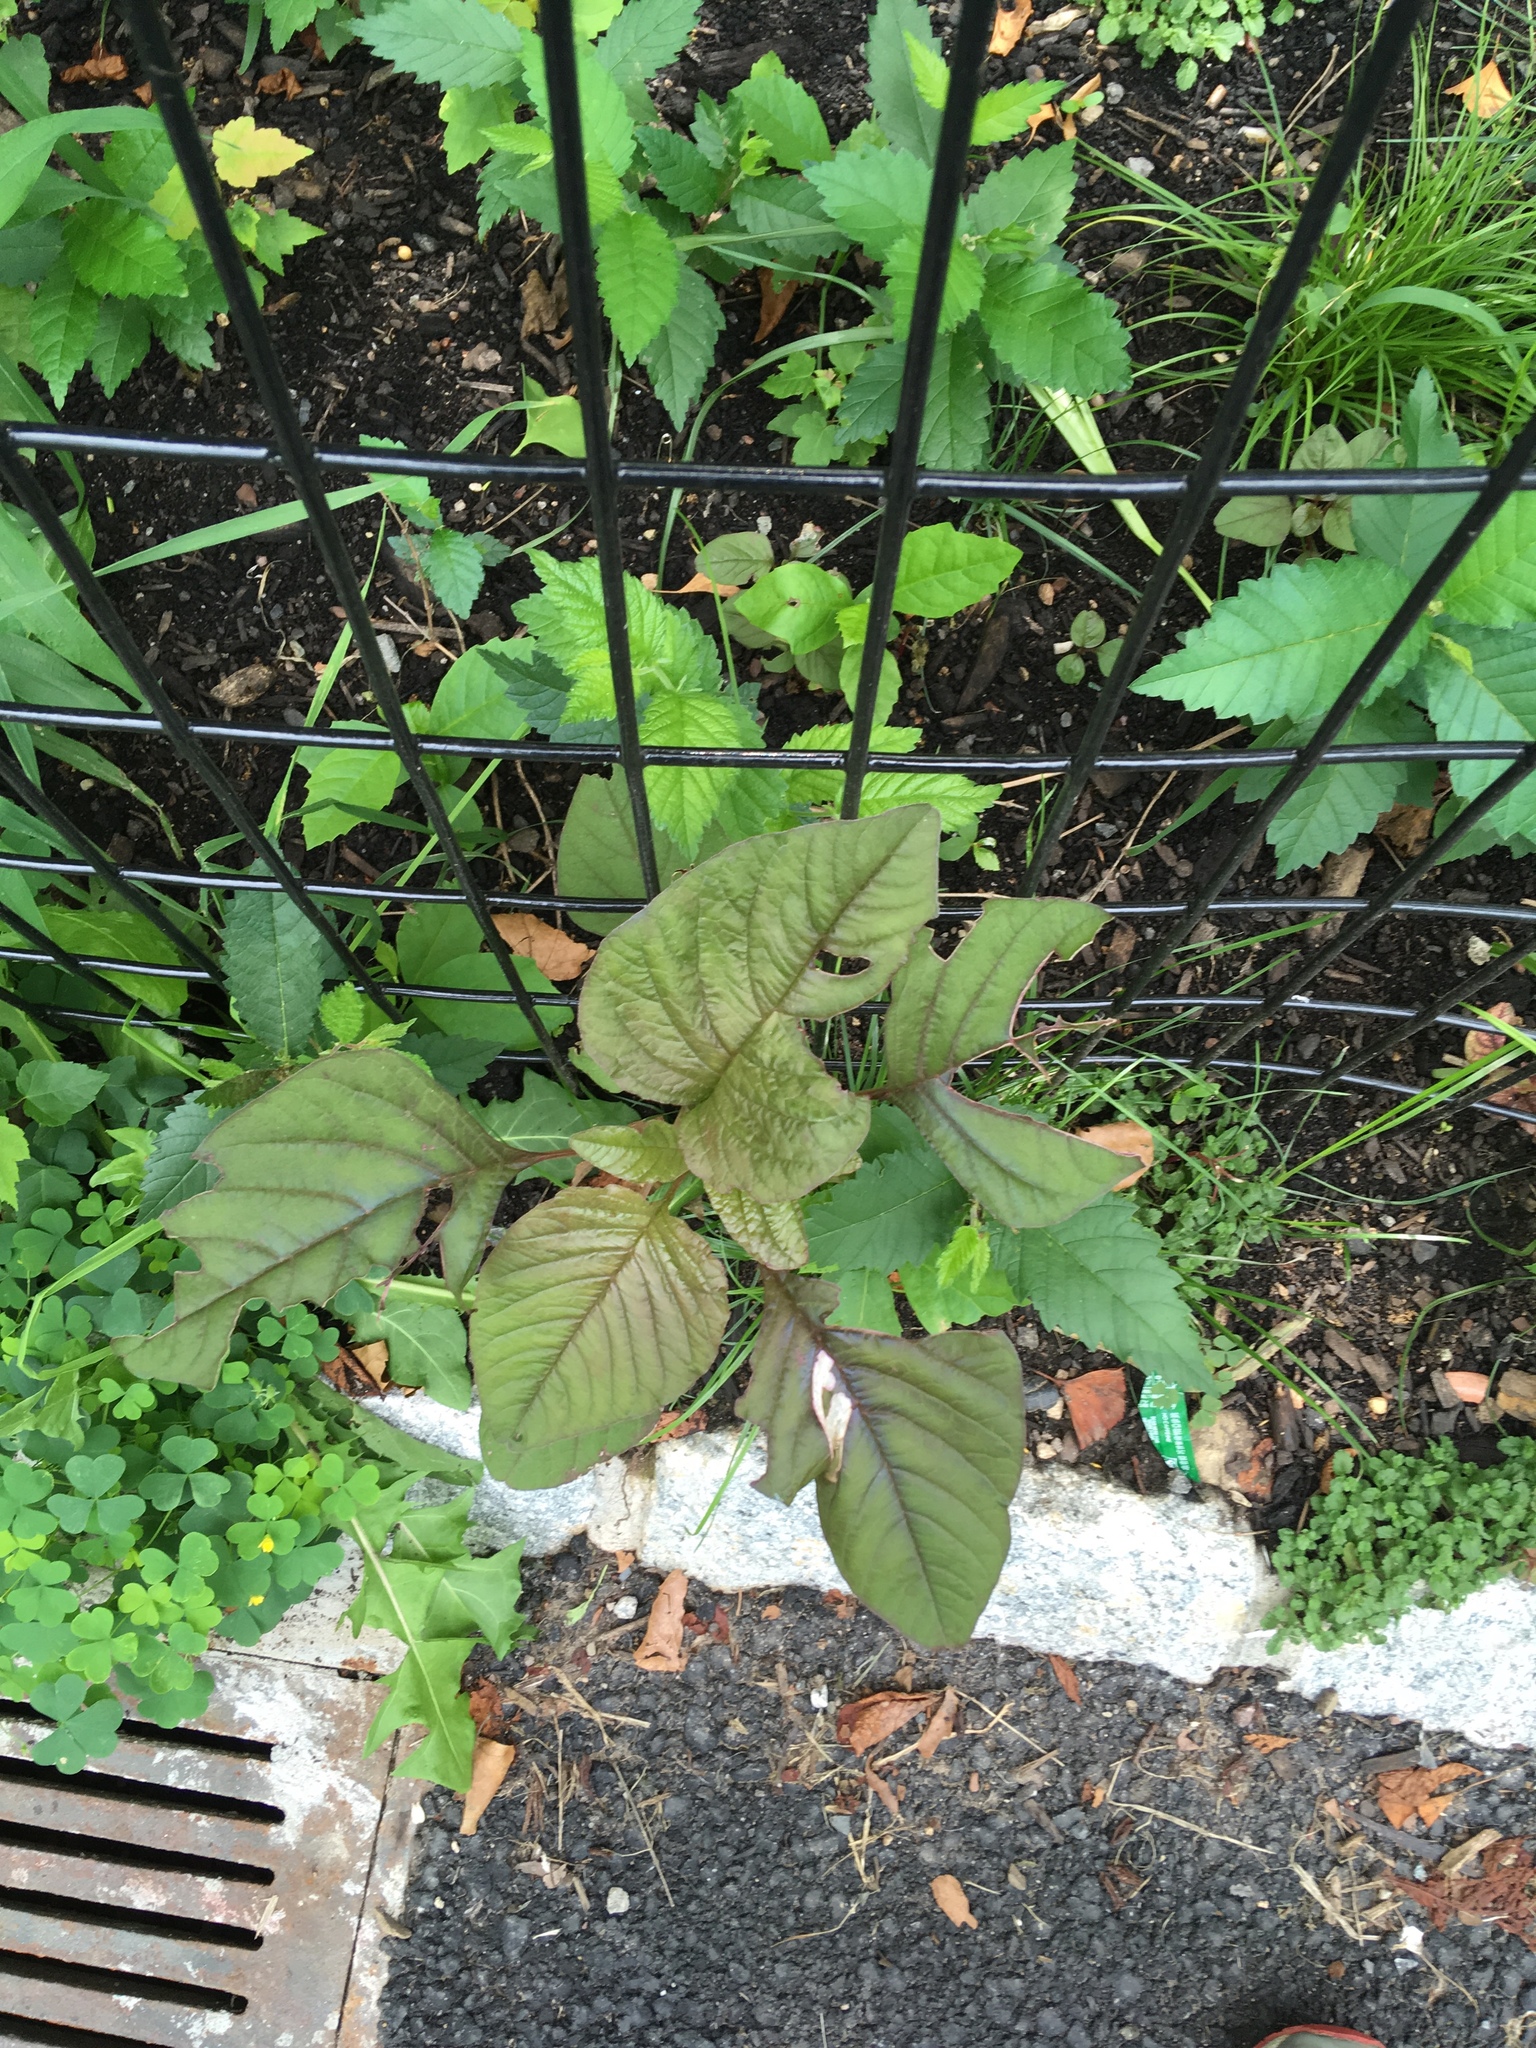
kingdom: Plantae
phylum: Tracheophyta
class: Magnoliopsida
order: Caryophyllales
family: Amaranthaceae
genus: Amaranthus
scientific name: Amaranthus cruentus
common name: Purple amaranth
